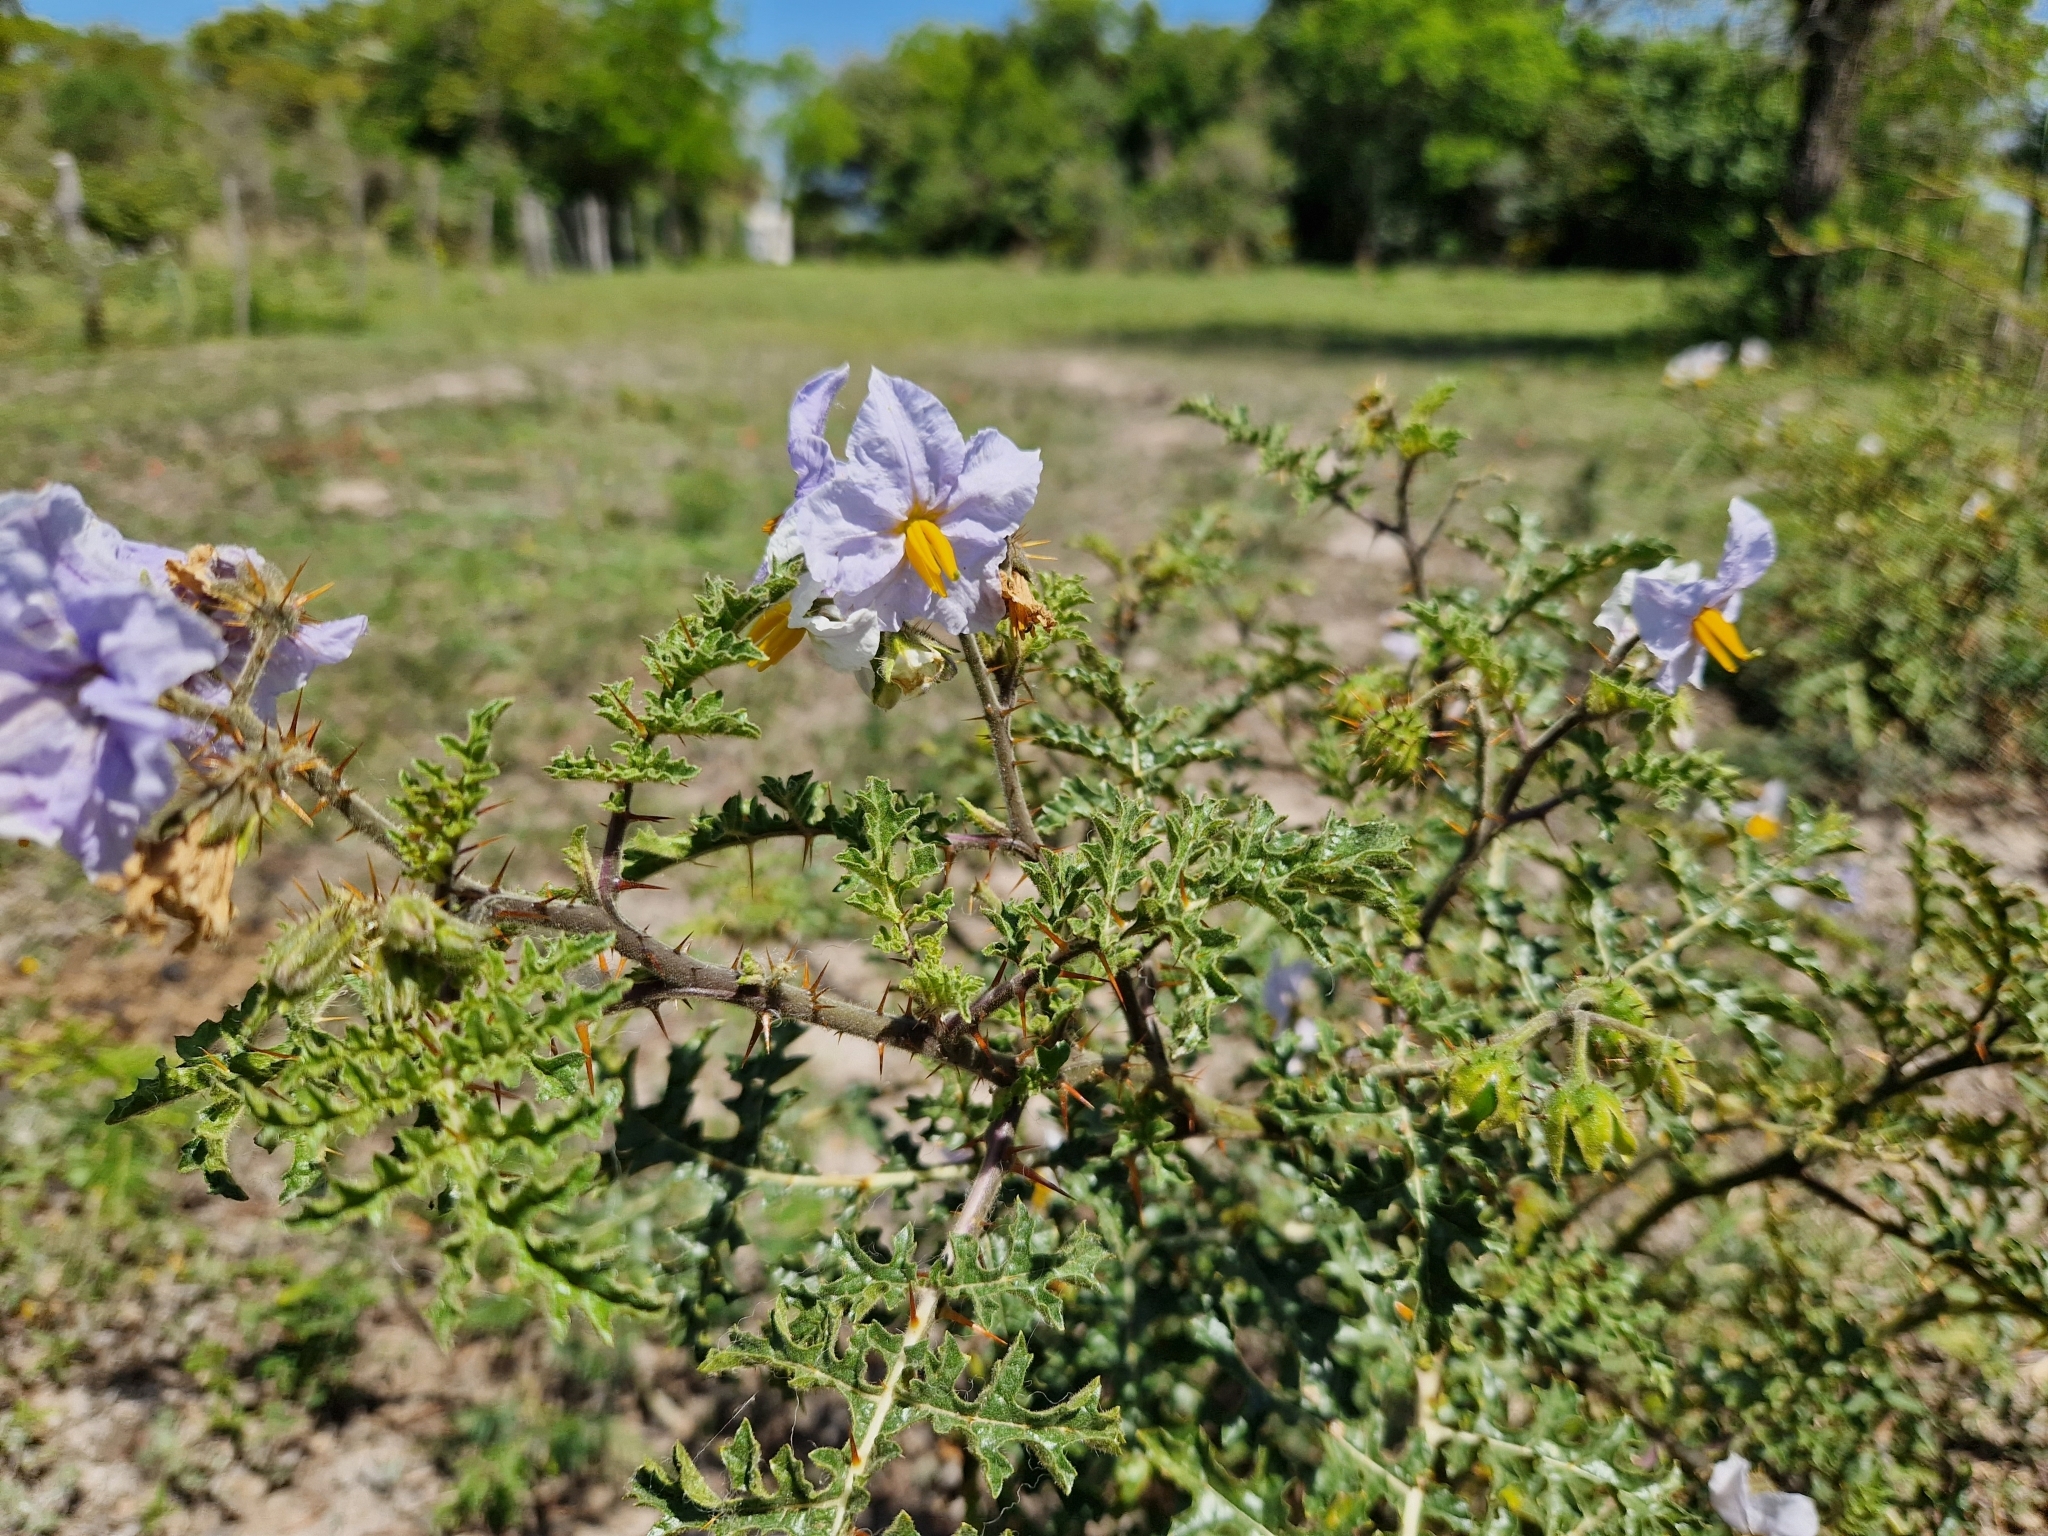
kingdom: Plantae
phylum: Tracheophyta
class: Magnoliopsida
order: Solanales
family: Solanaceae
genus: Solanum
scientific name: Solanum sisymbriifolium
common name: Red buffalo-bur
